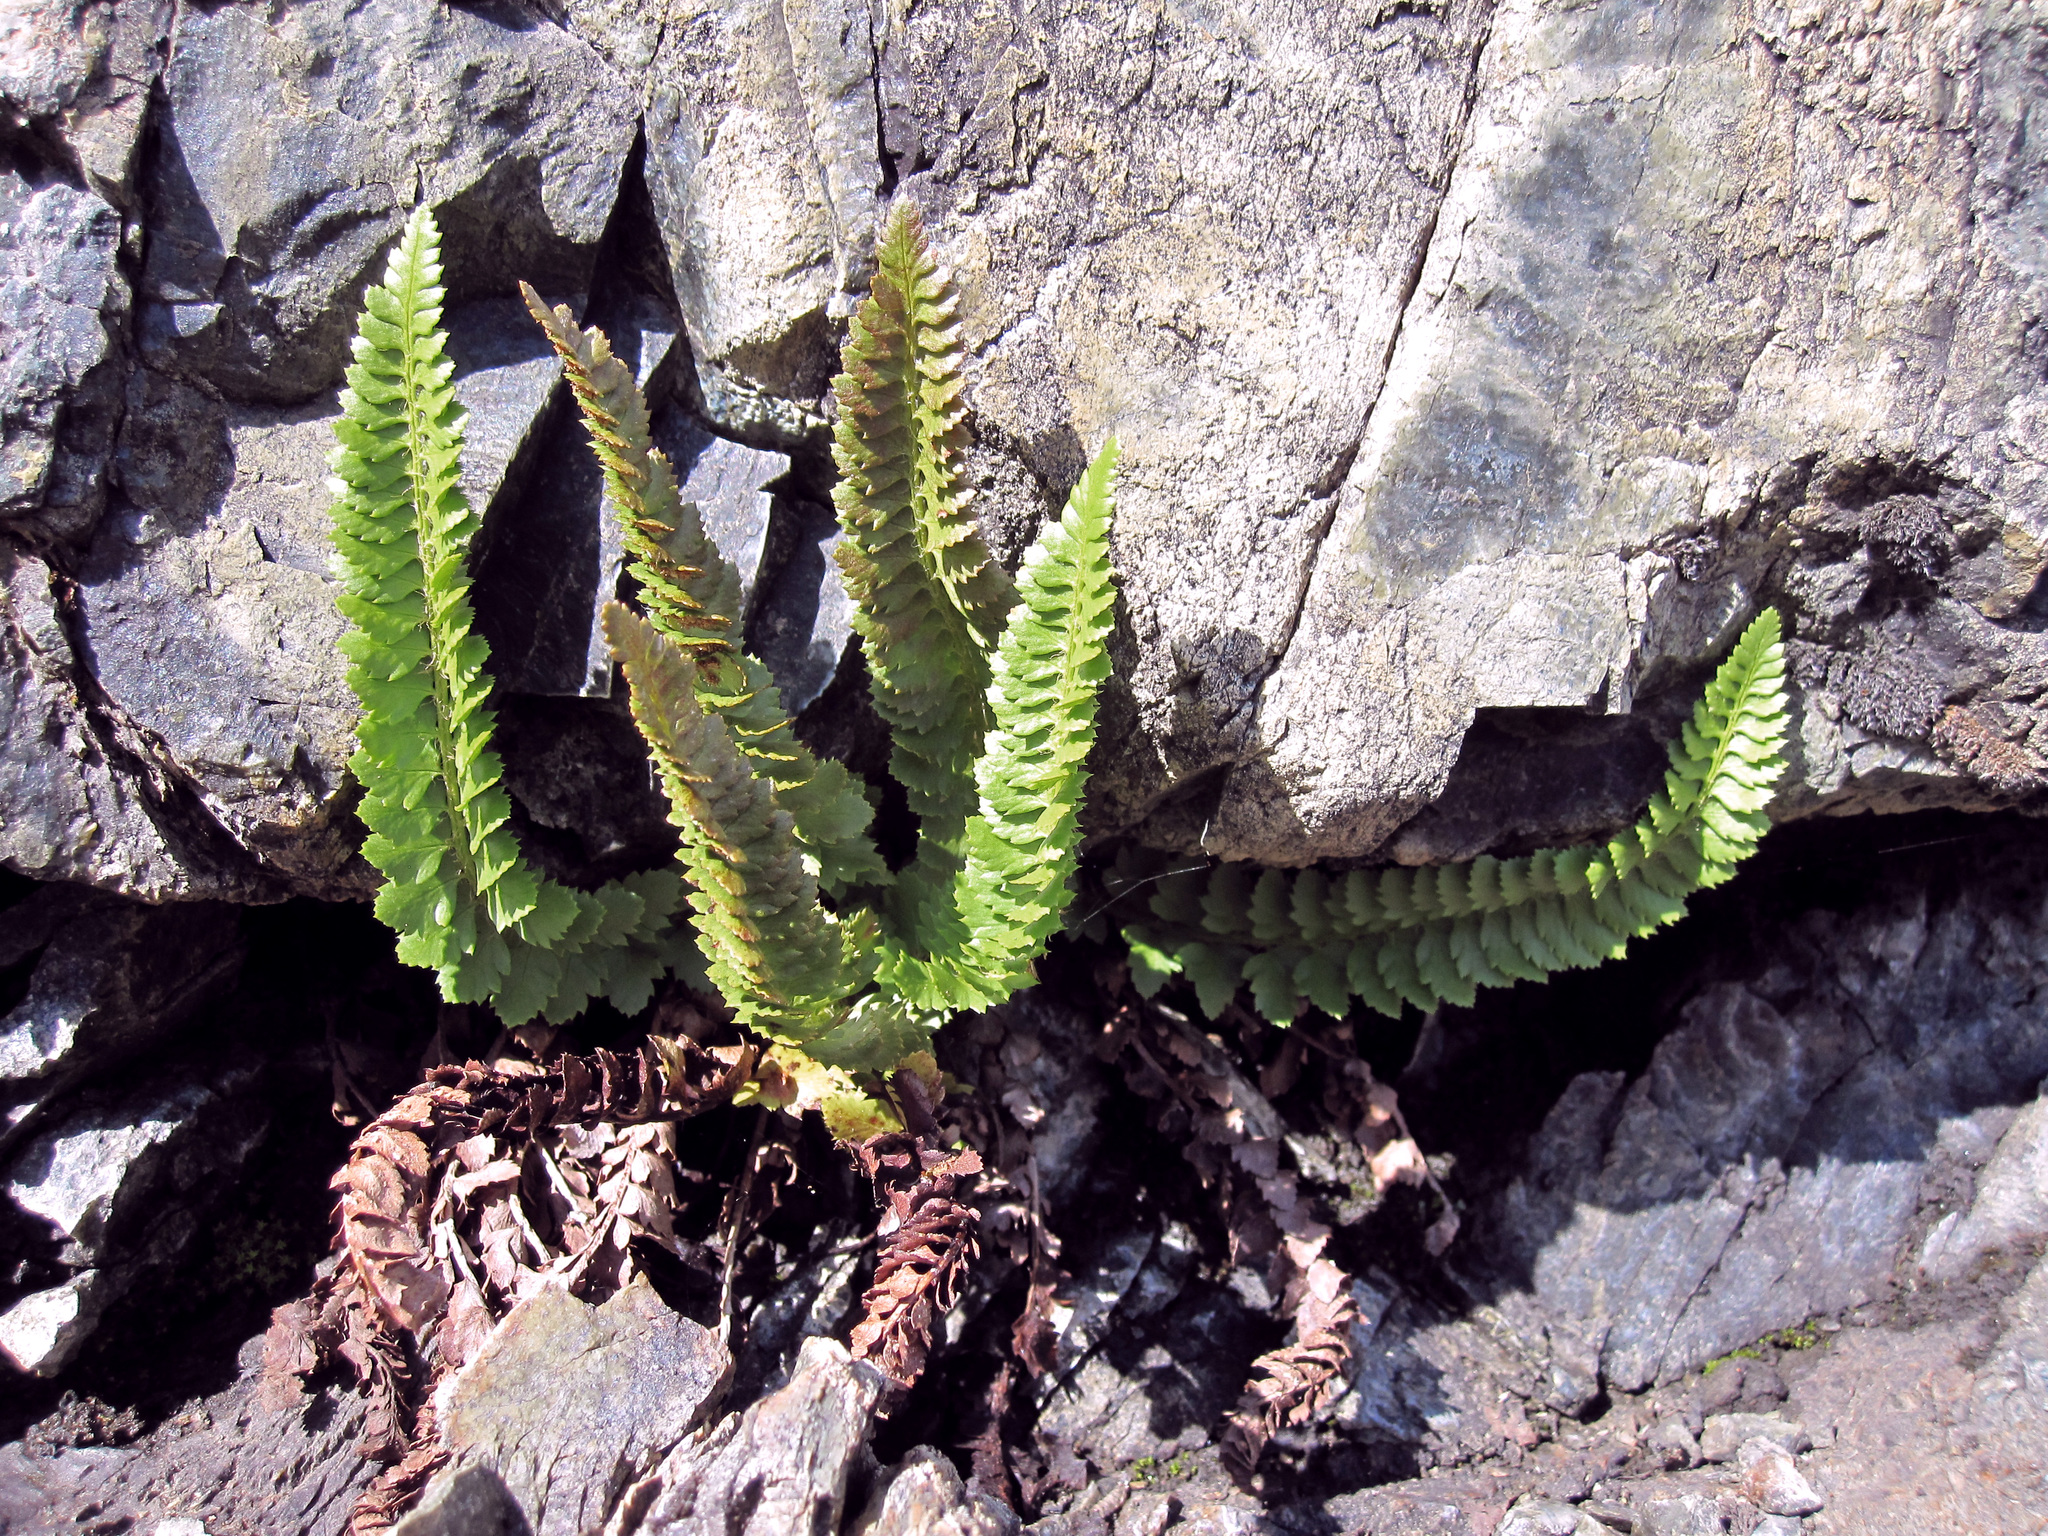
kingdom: Plantae
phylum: Tracheophyta
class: Polypodiopsida
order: Polypodiales
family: Dryopteridaceae
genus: Polystichum
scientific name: Polystichum kruckebergii
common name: Kruckeberg's holly fern
